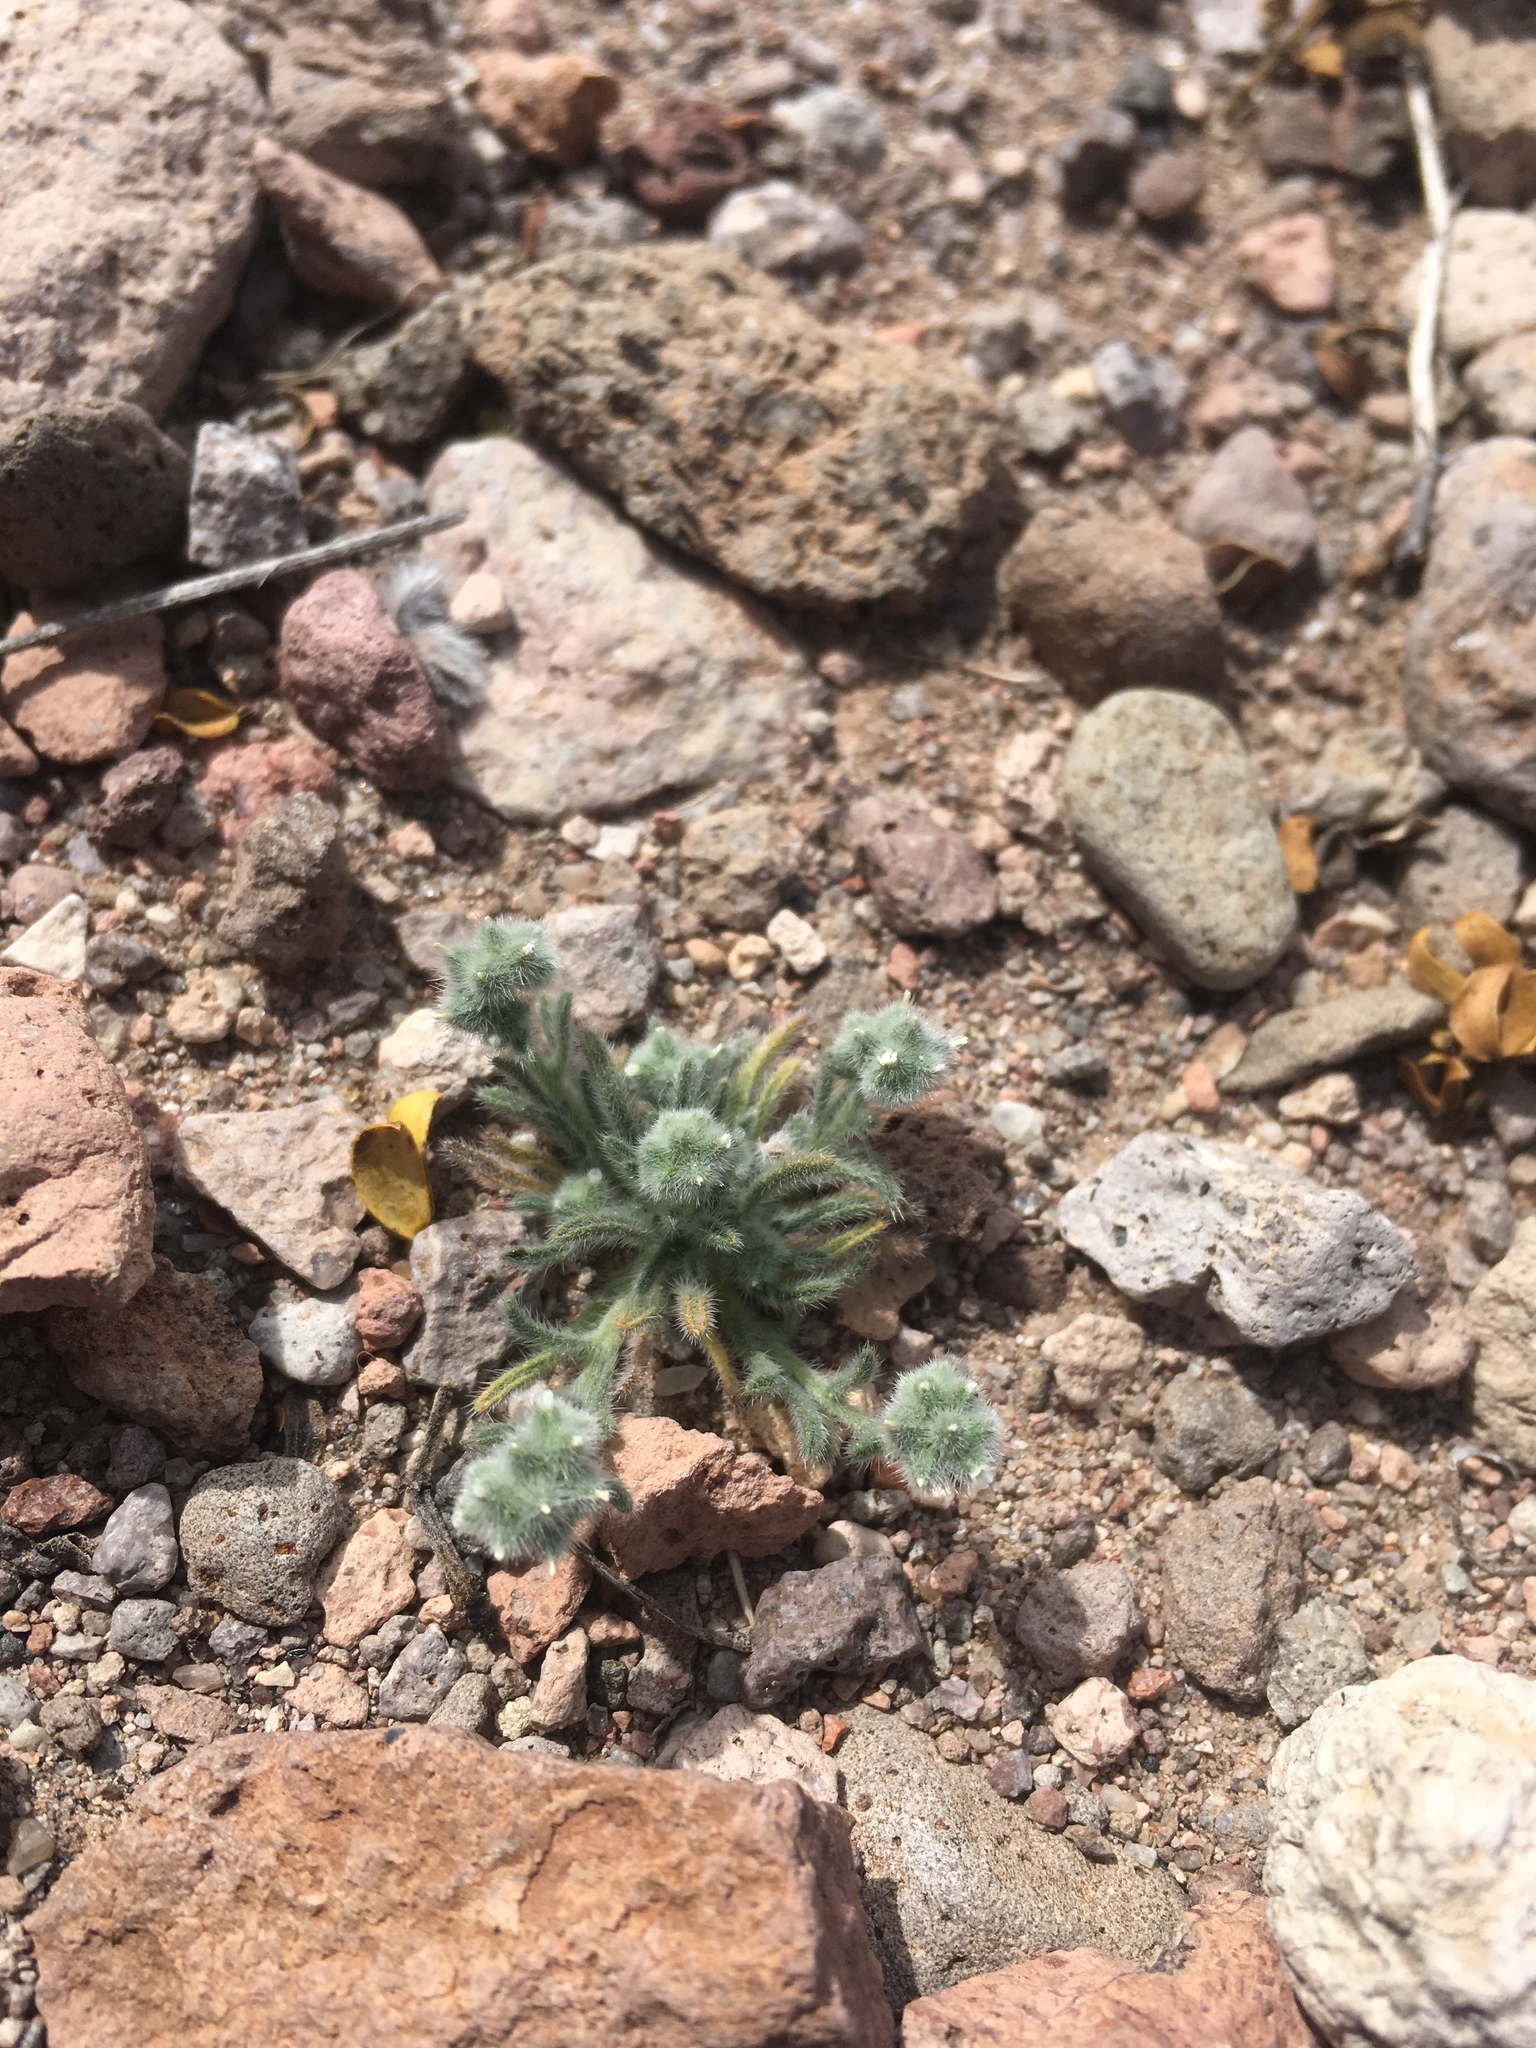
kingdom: Plantae
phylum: Tracheophyta
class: Magnoliopsida
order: Boraginales
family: Boraginaceae
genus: Johnstonella
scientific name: Johnstonella pusilla
